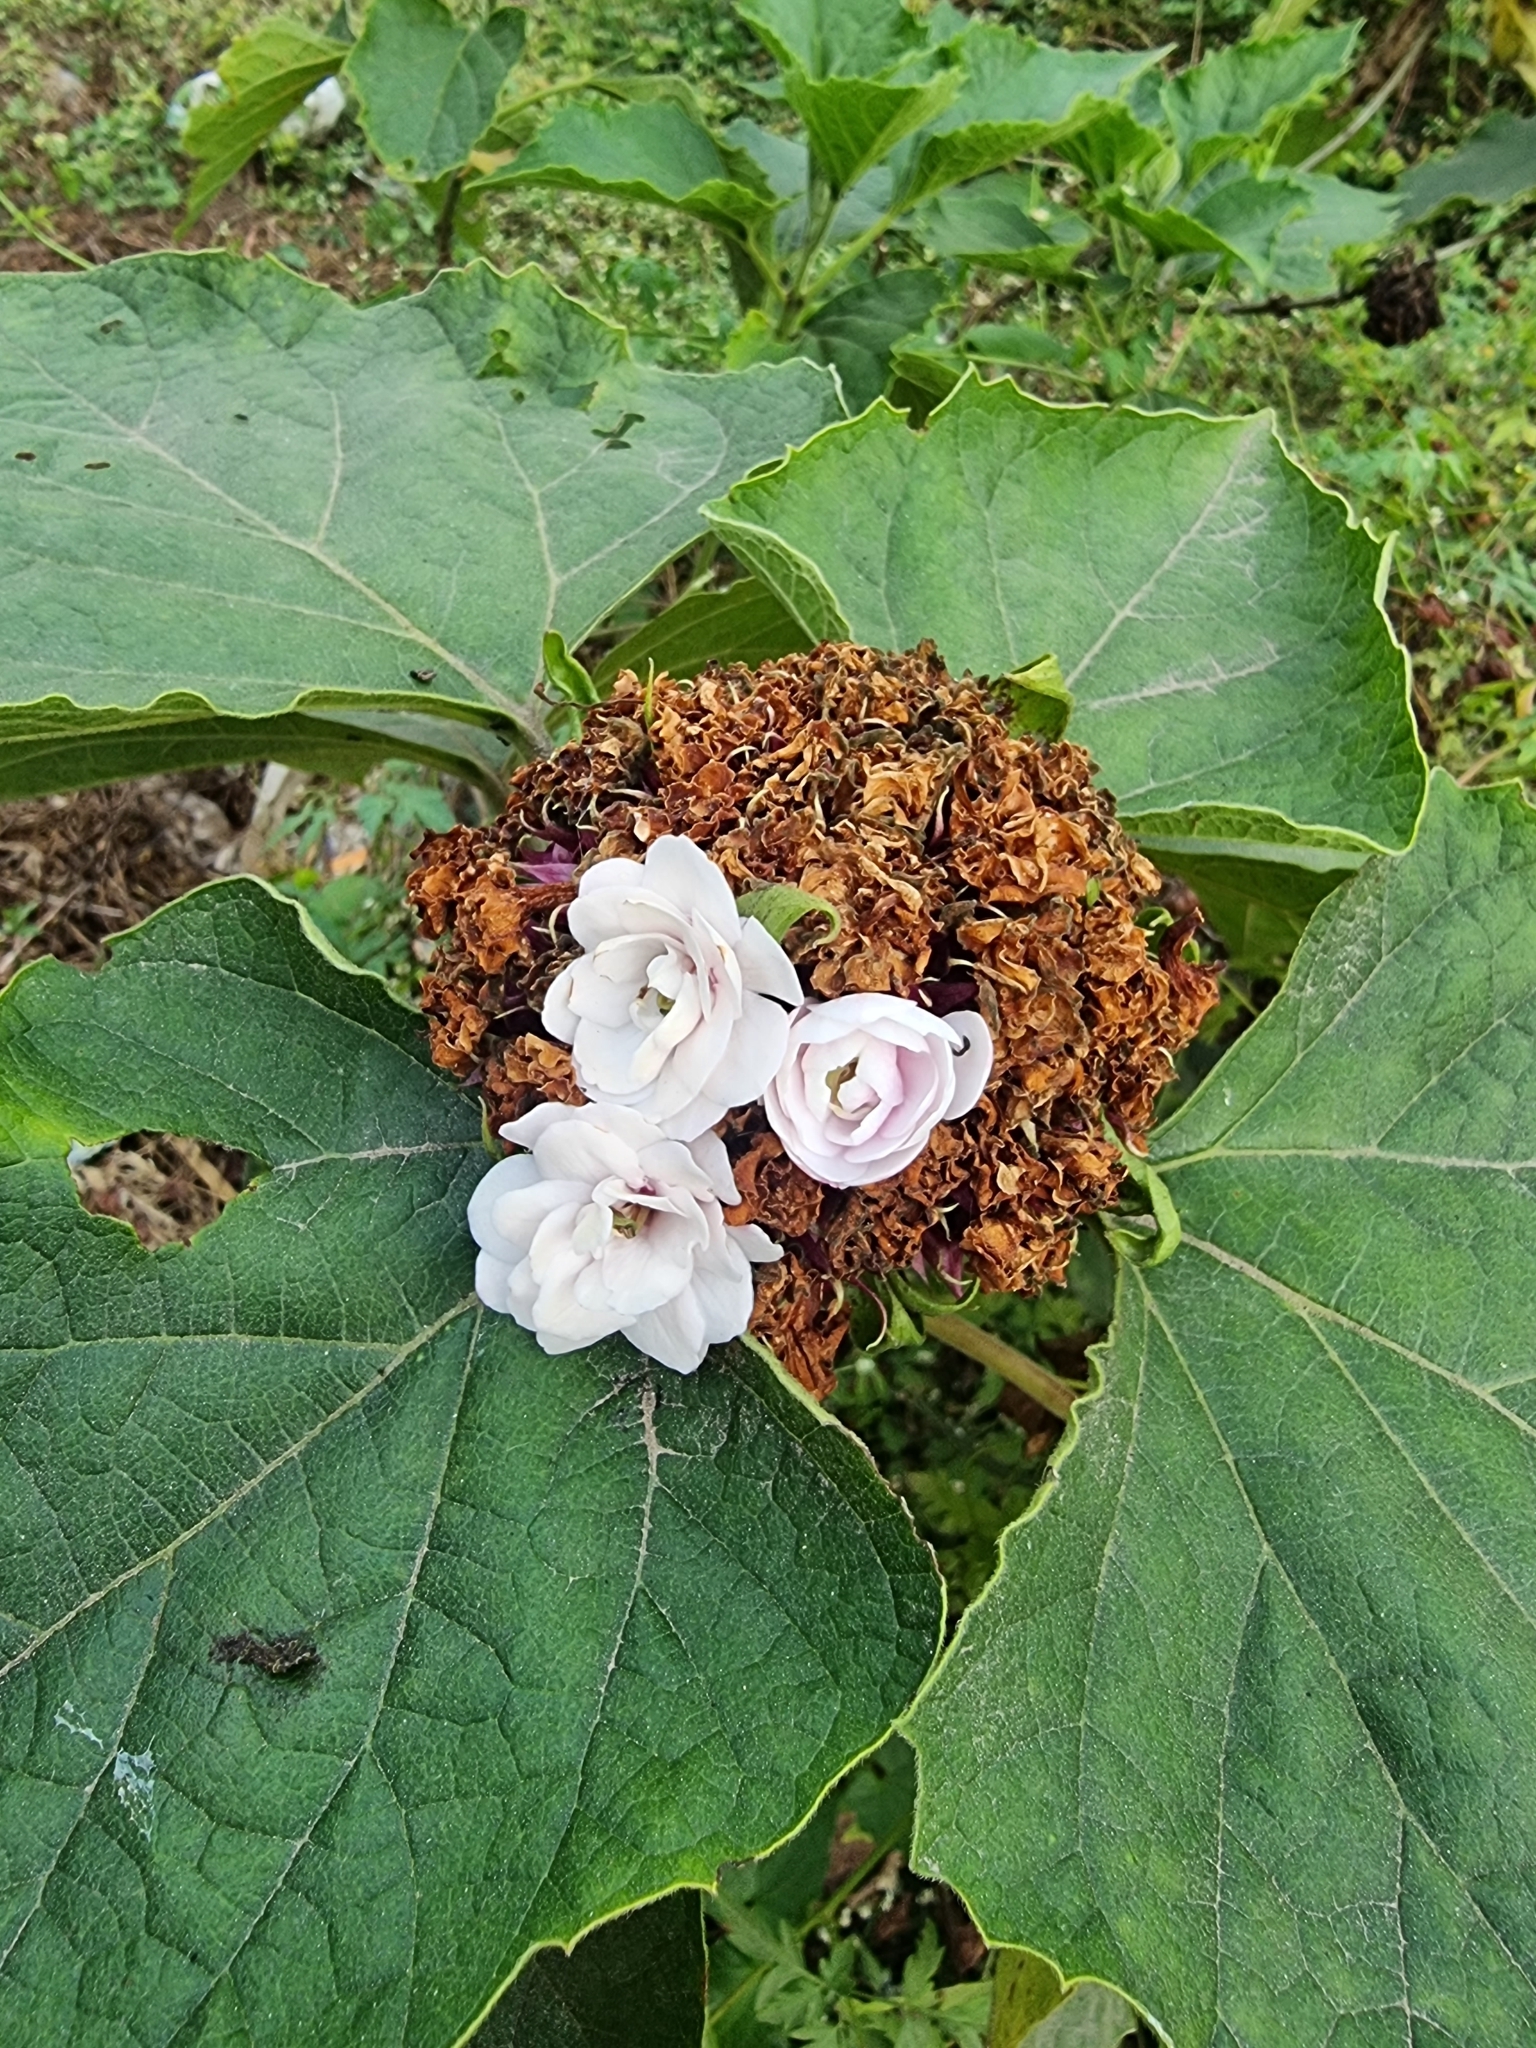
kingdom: Plantae
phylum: Tracheophyta
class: Magnoliopsida
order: Lamiales
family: Lamiaceae
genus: Clerodendrum
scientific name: Clerodendrum chinense
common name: Stickbush
